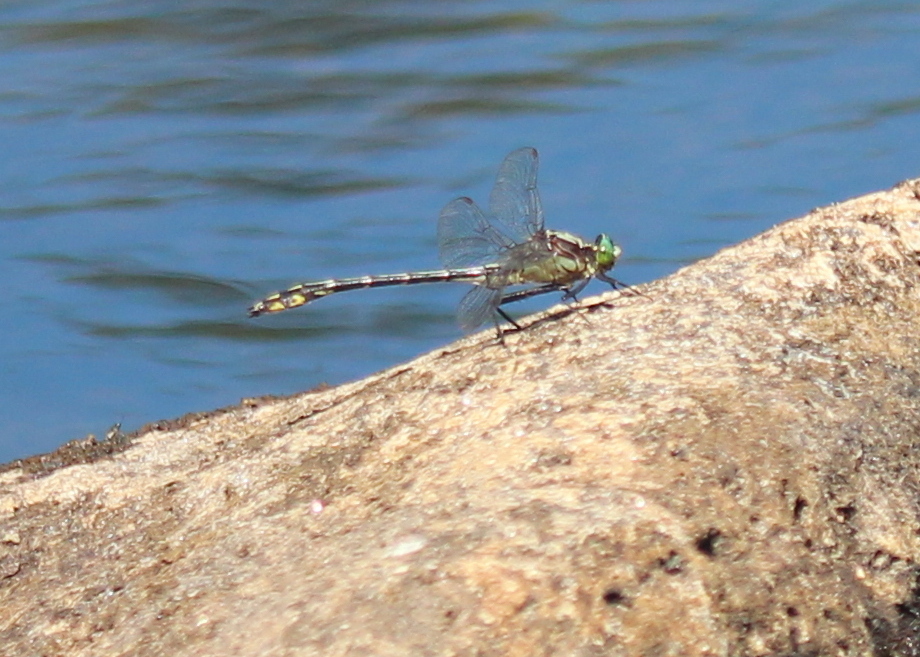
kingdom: Animalia
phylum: Arthropoda
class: Insecta
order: Odonata
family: Gomphidae
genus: Dromogomphus
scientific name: Dromogomphus spinosus
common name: Black-shouldered spinyleg
